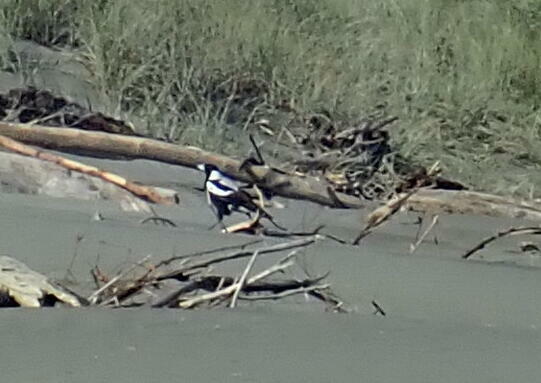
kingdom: Animalia
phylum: Chordata
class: Aves
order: Passeriformes
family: Cracticidae
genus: Gymnorhina
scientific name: Gymnorhina tibicen
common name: Australian magpie
